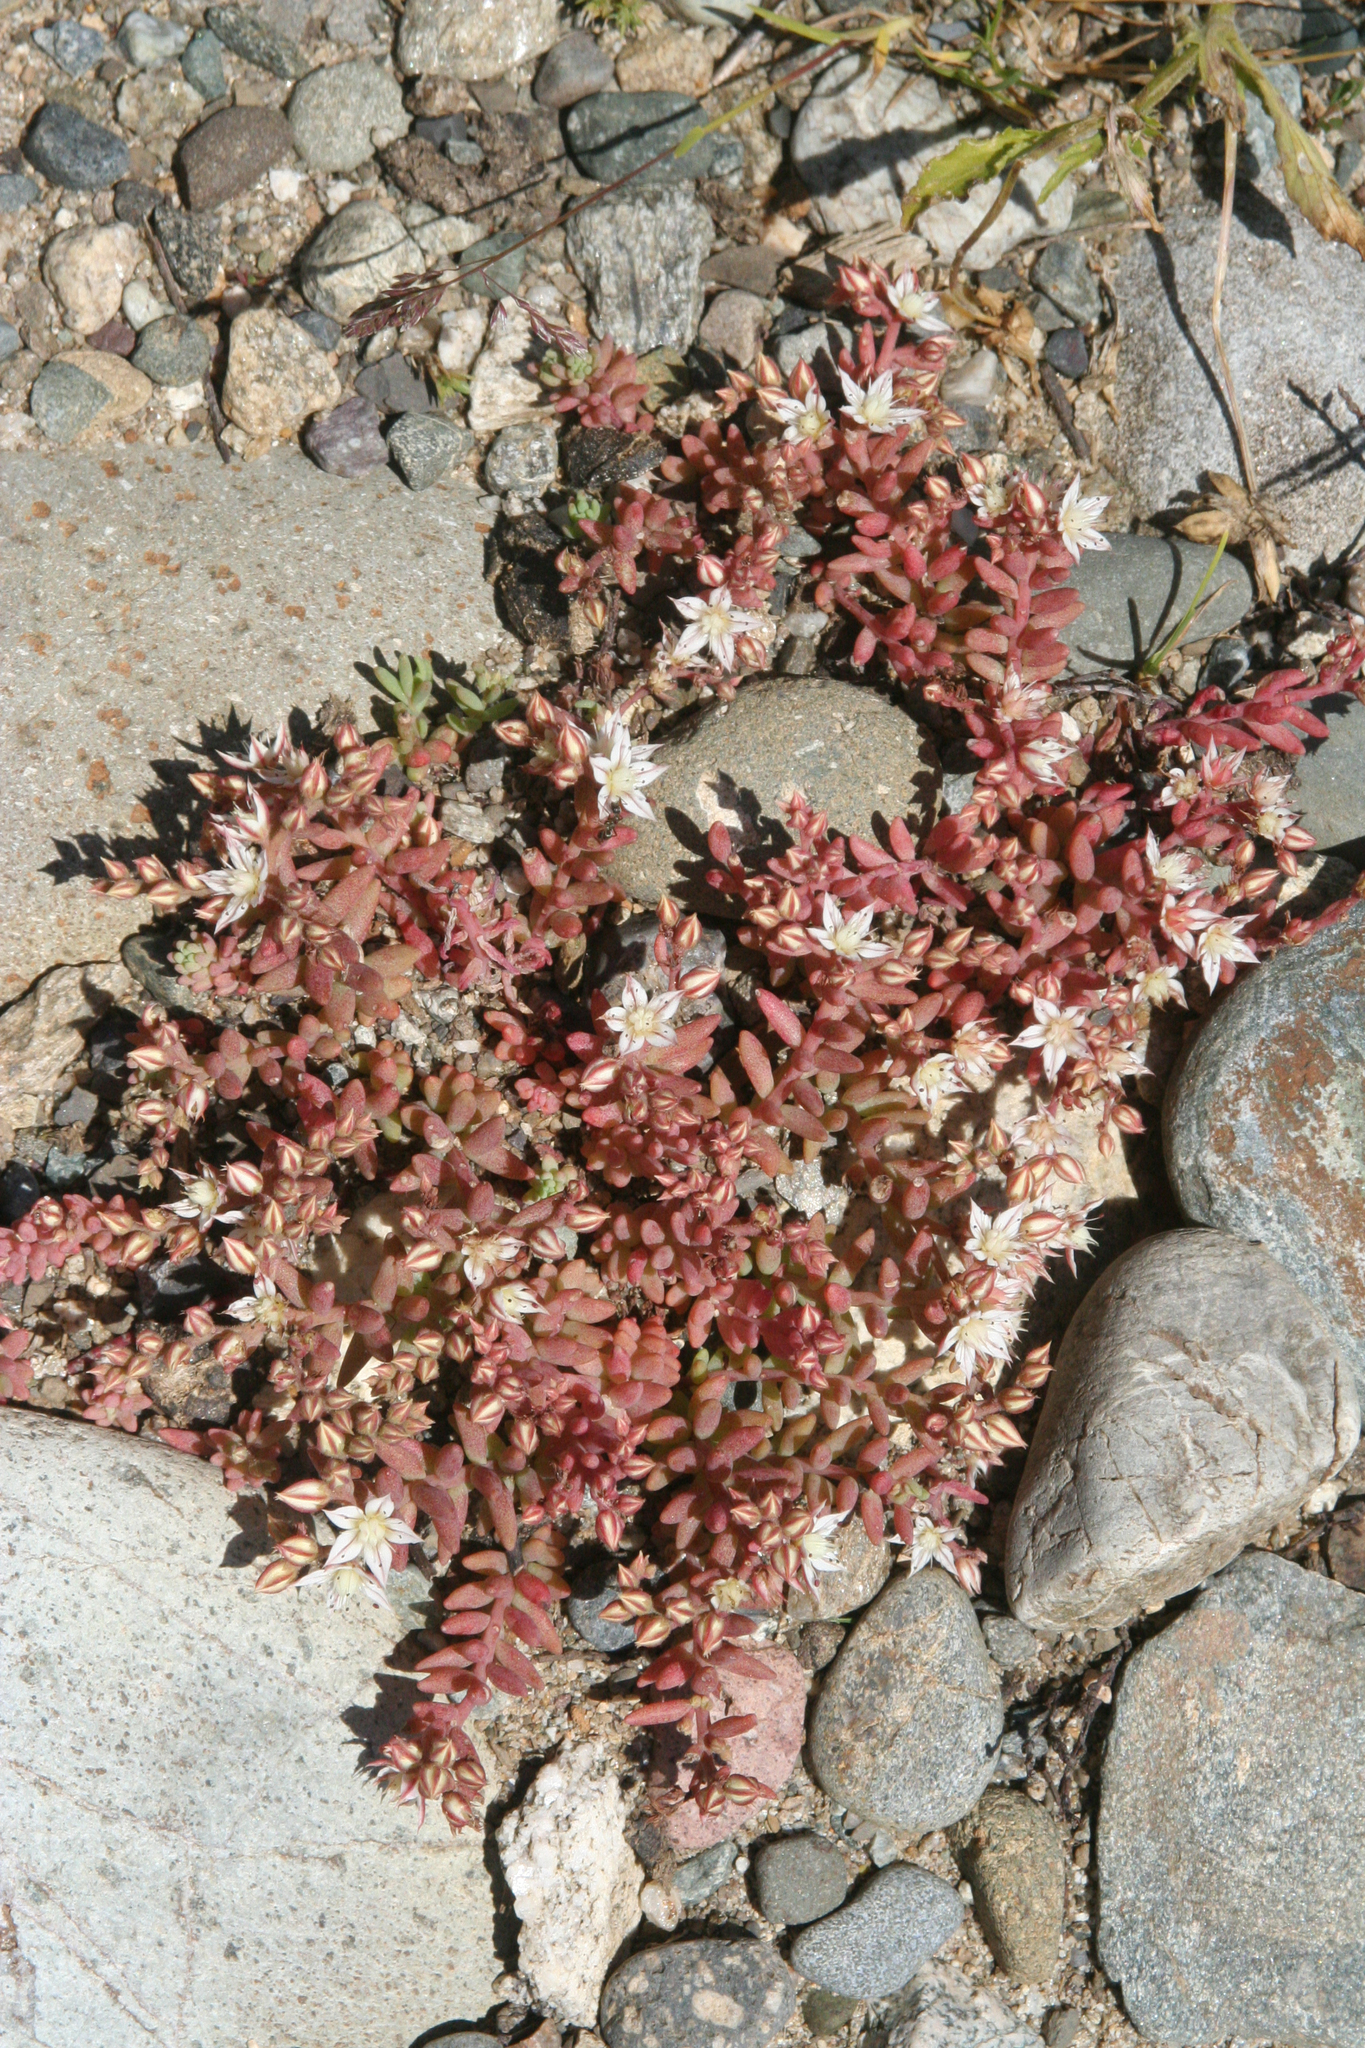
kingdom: Plantae
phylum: Tracheophyta
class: Magnoliopsida
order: Saxifragales
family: Crassulaceae
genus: Sedum
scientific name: Sedum pallidum
